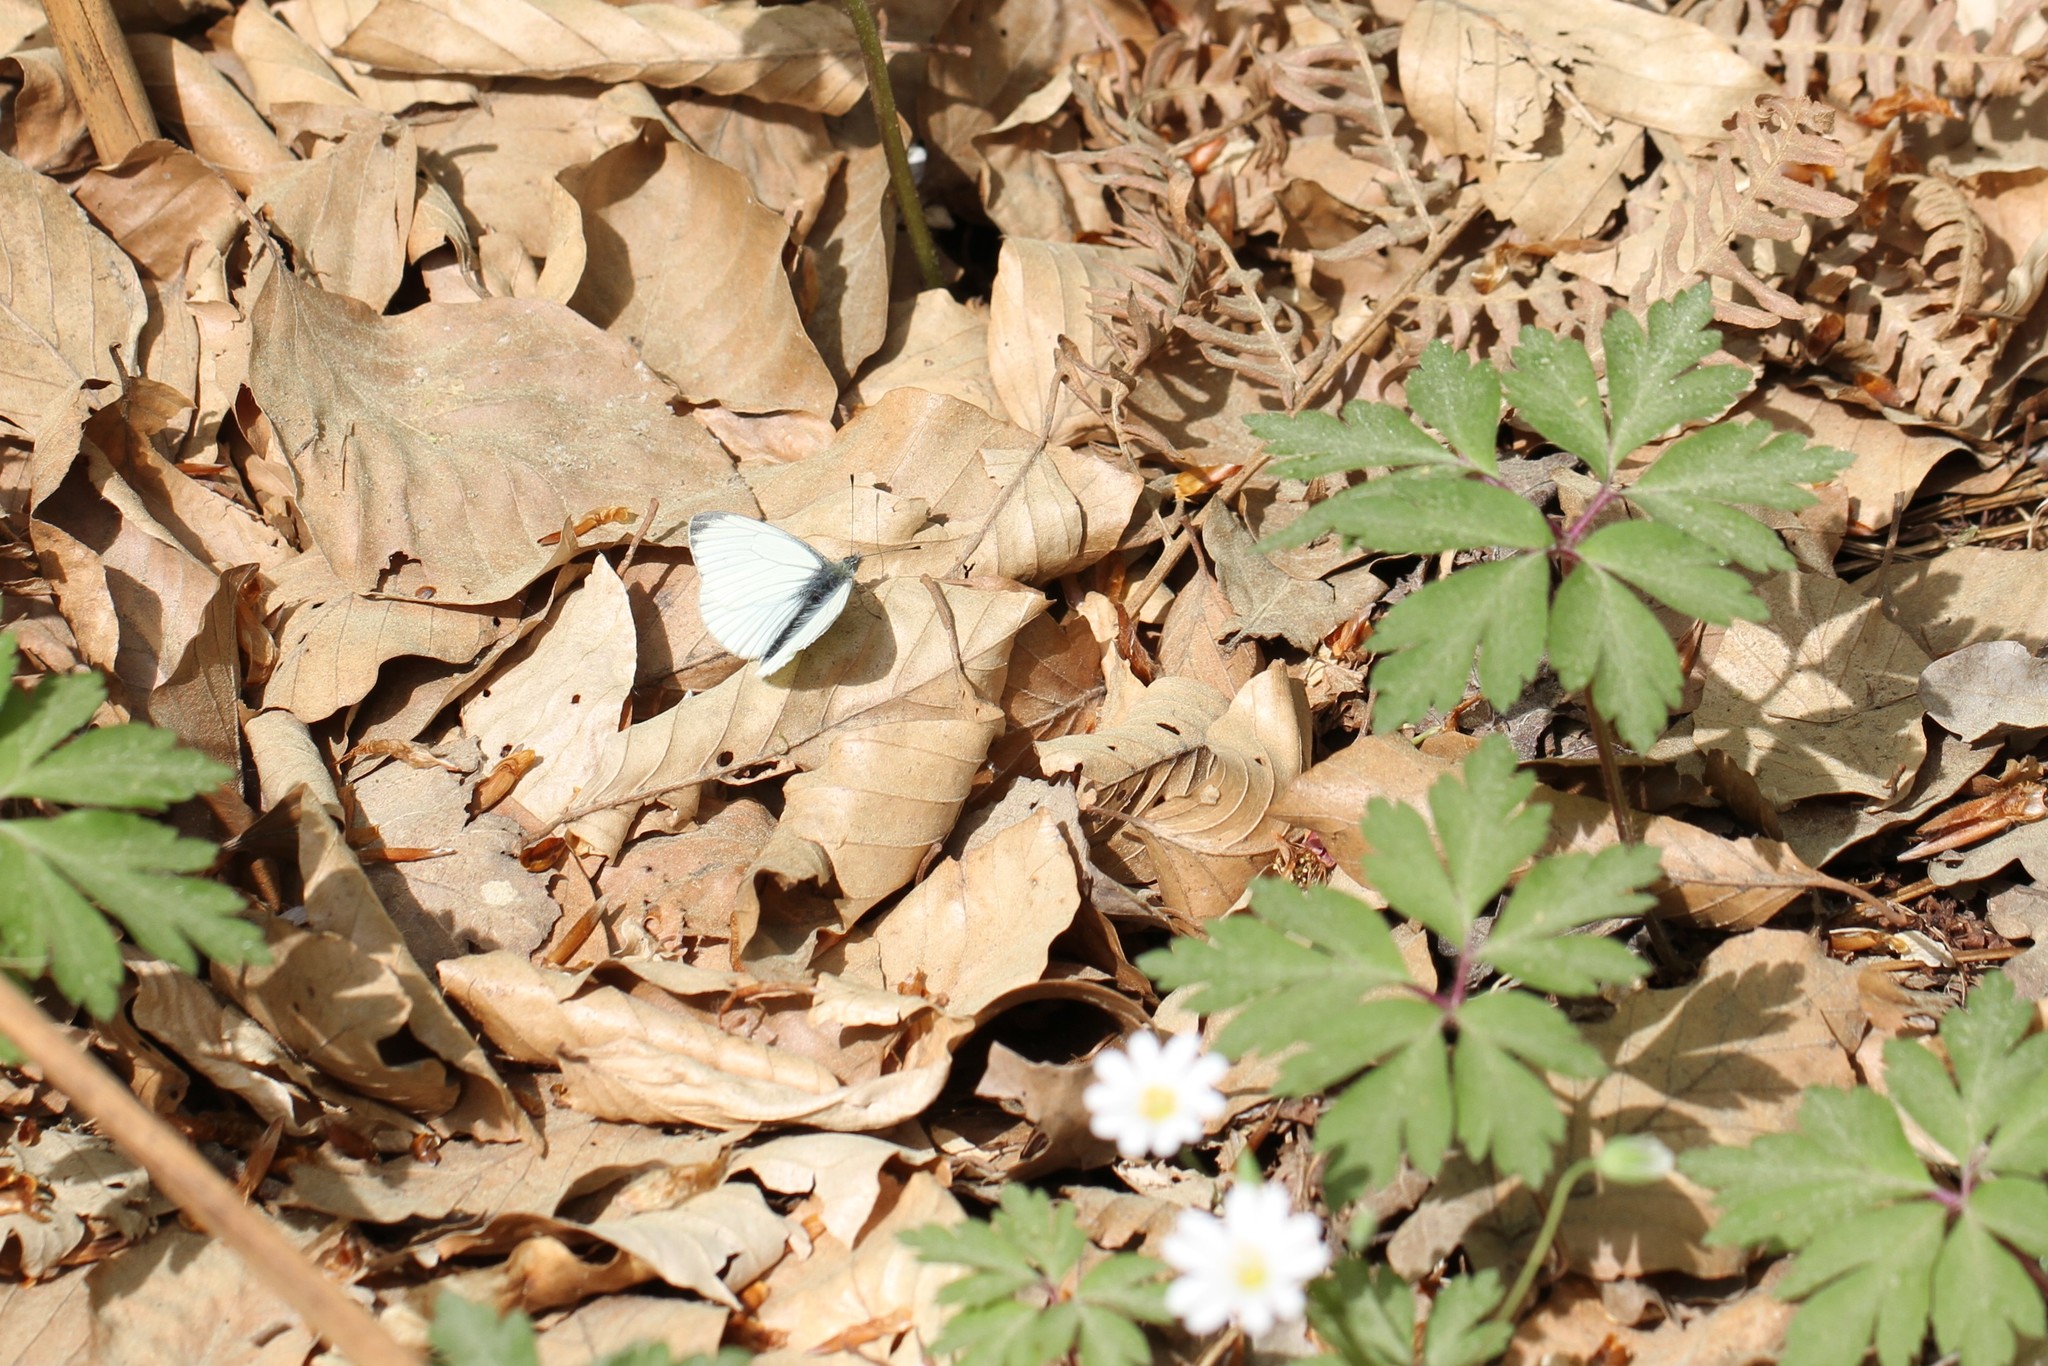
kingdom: Animalia
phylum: Arthropoda
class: Insecta
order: Lepidoptera
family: Pieridae
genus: Pieris
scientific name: Pieris napi
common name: Green-veined white
